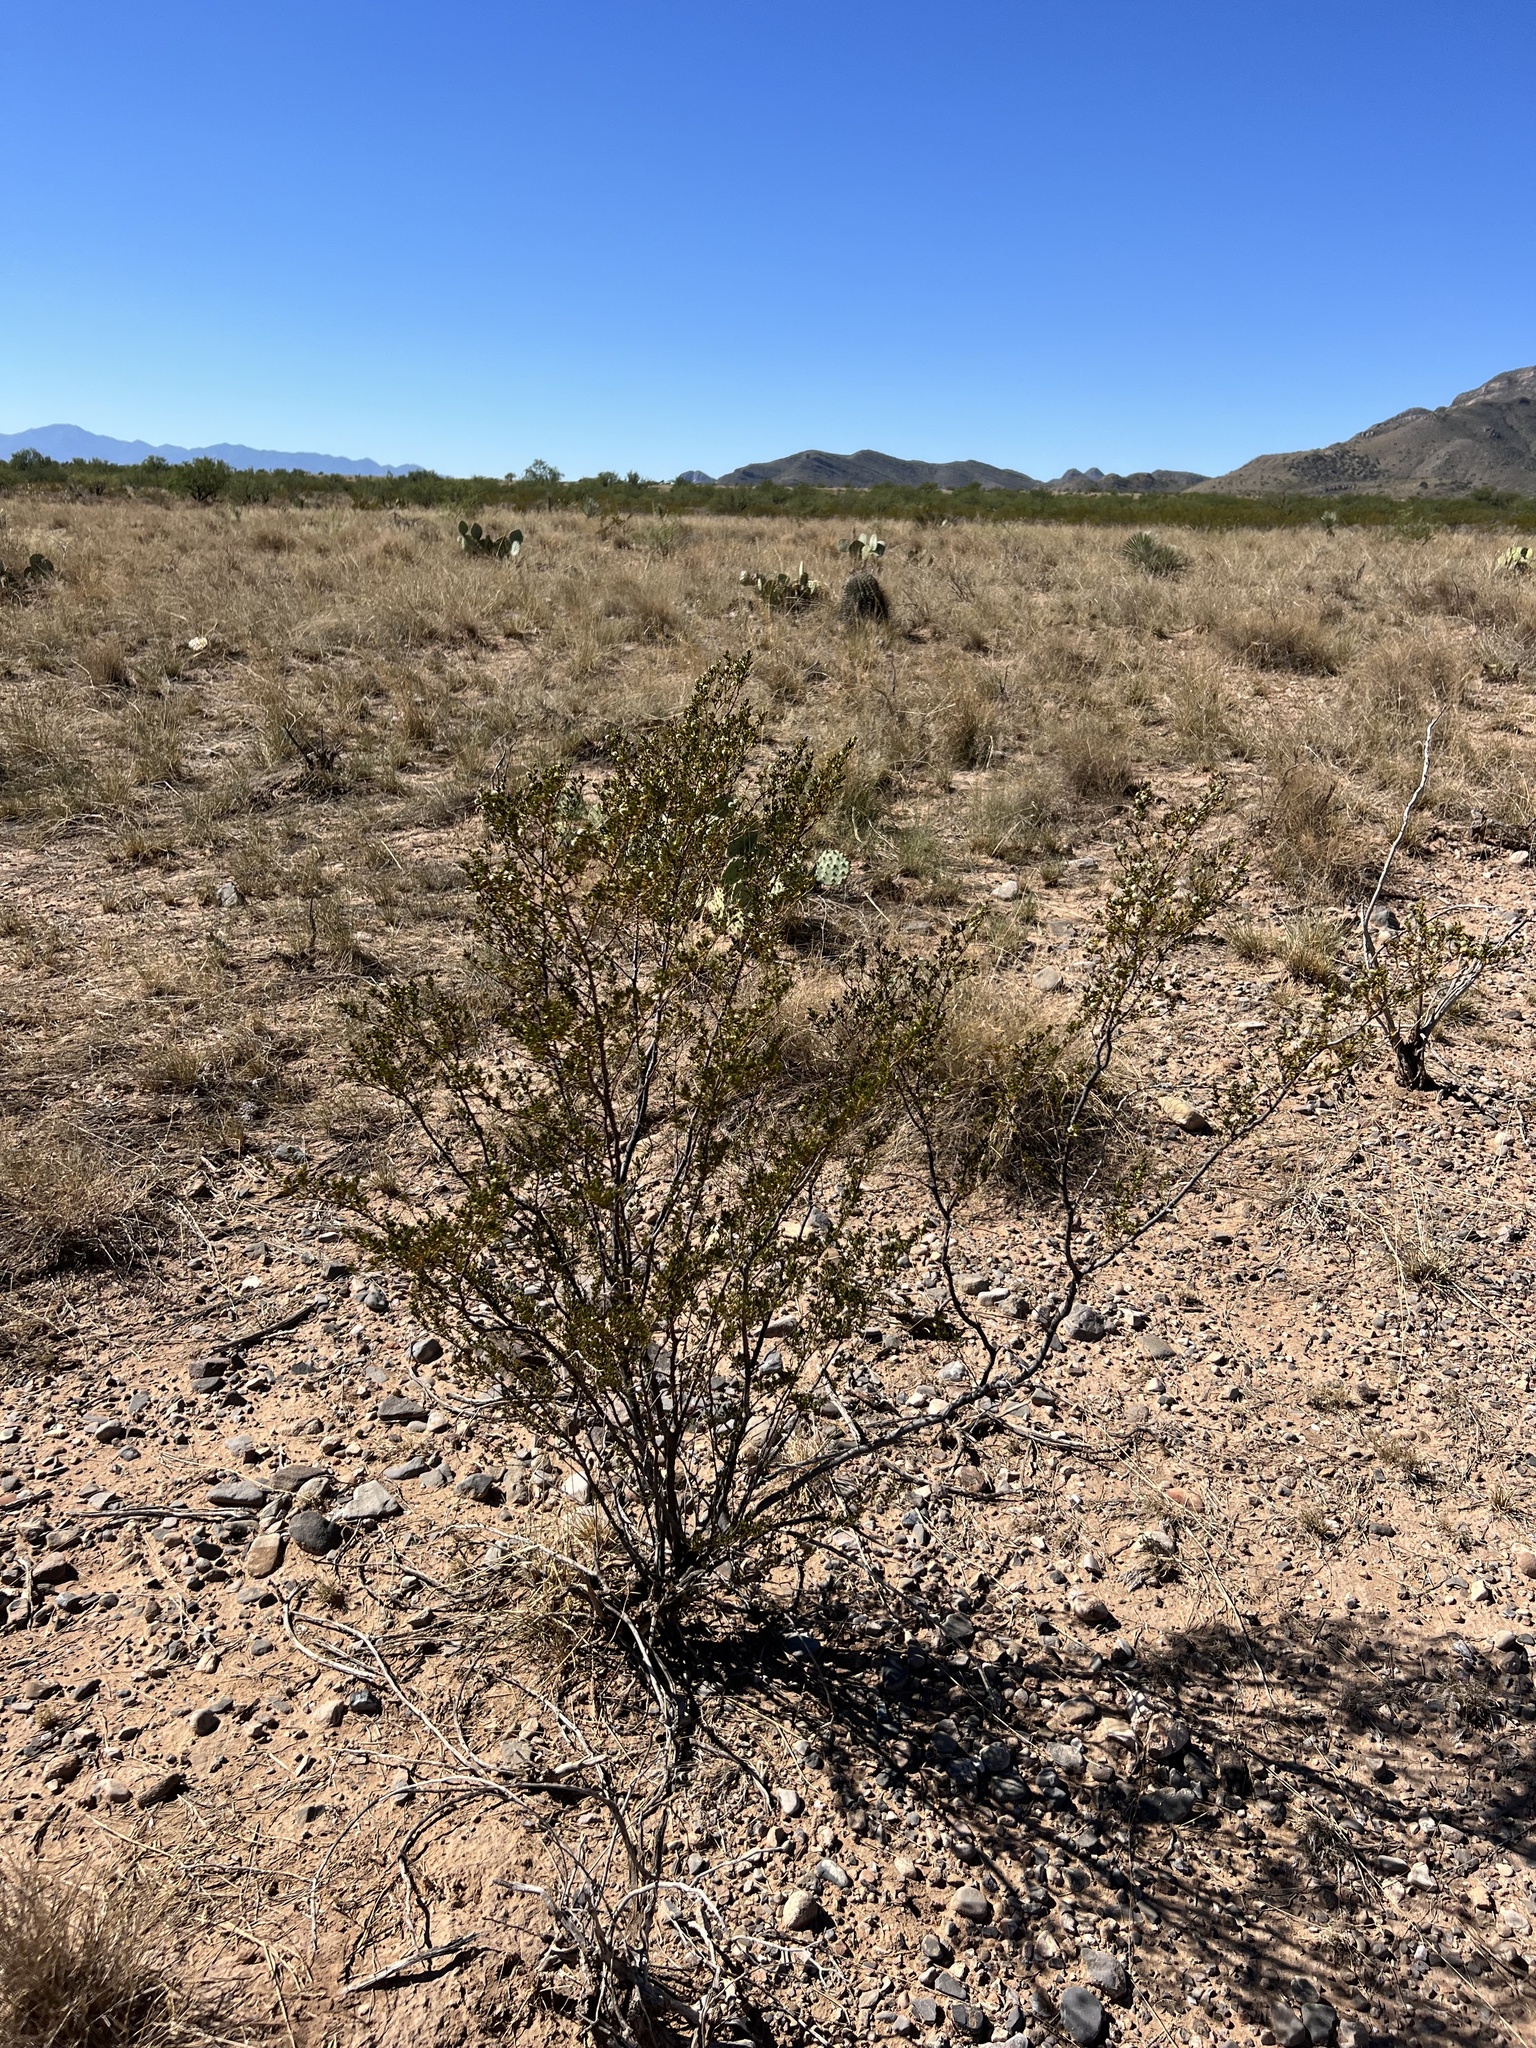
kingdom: Plantae
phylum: Tracheophyta
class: Magnoliopsida
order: Zygophyllales
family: Zygophyllaceae
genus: Larrea
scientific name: Larrea tridentata
